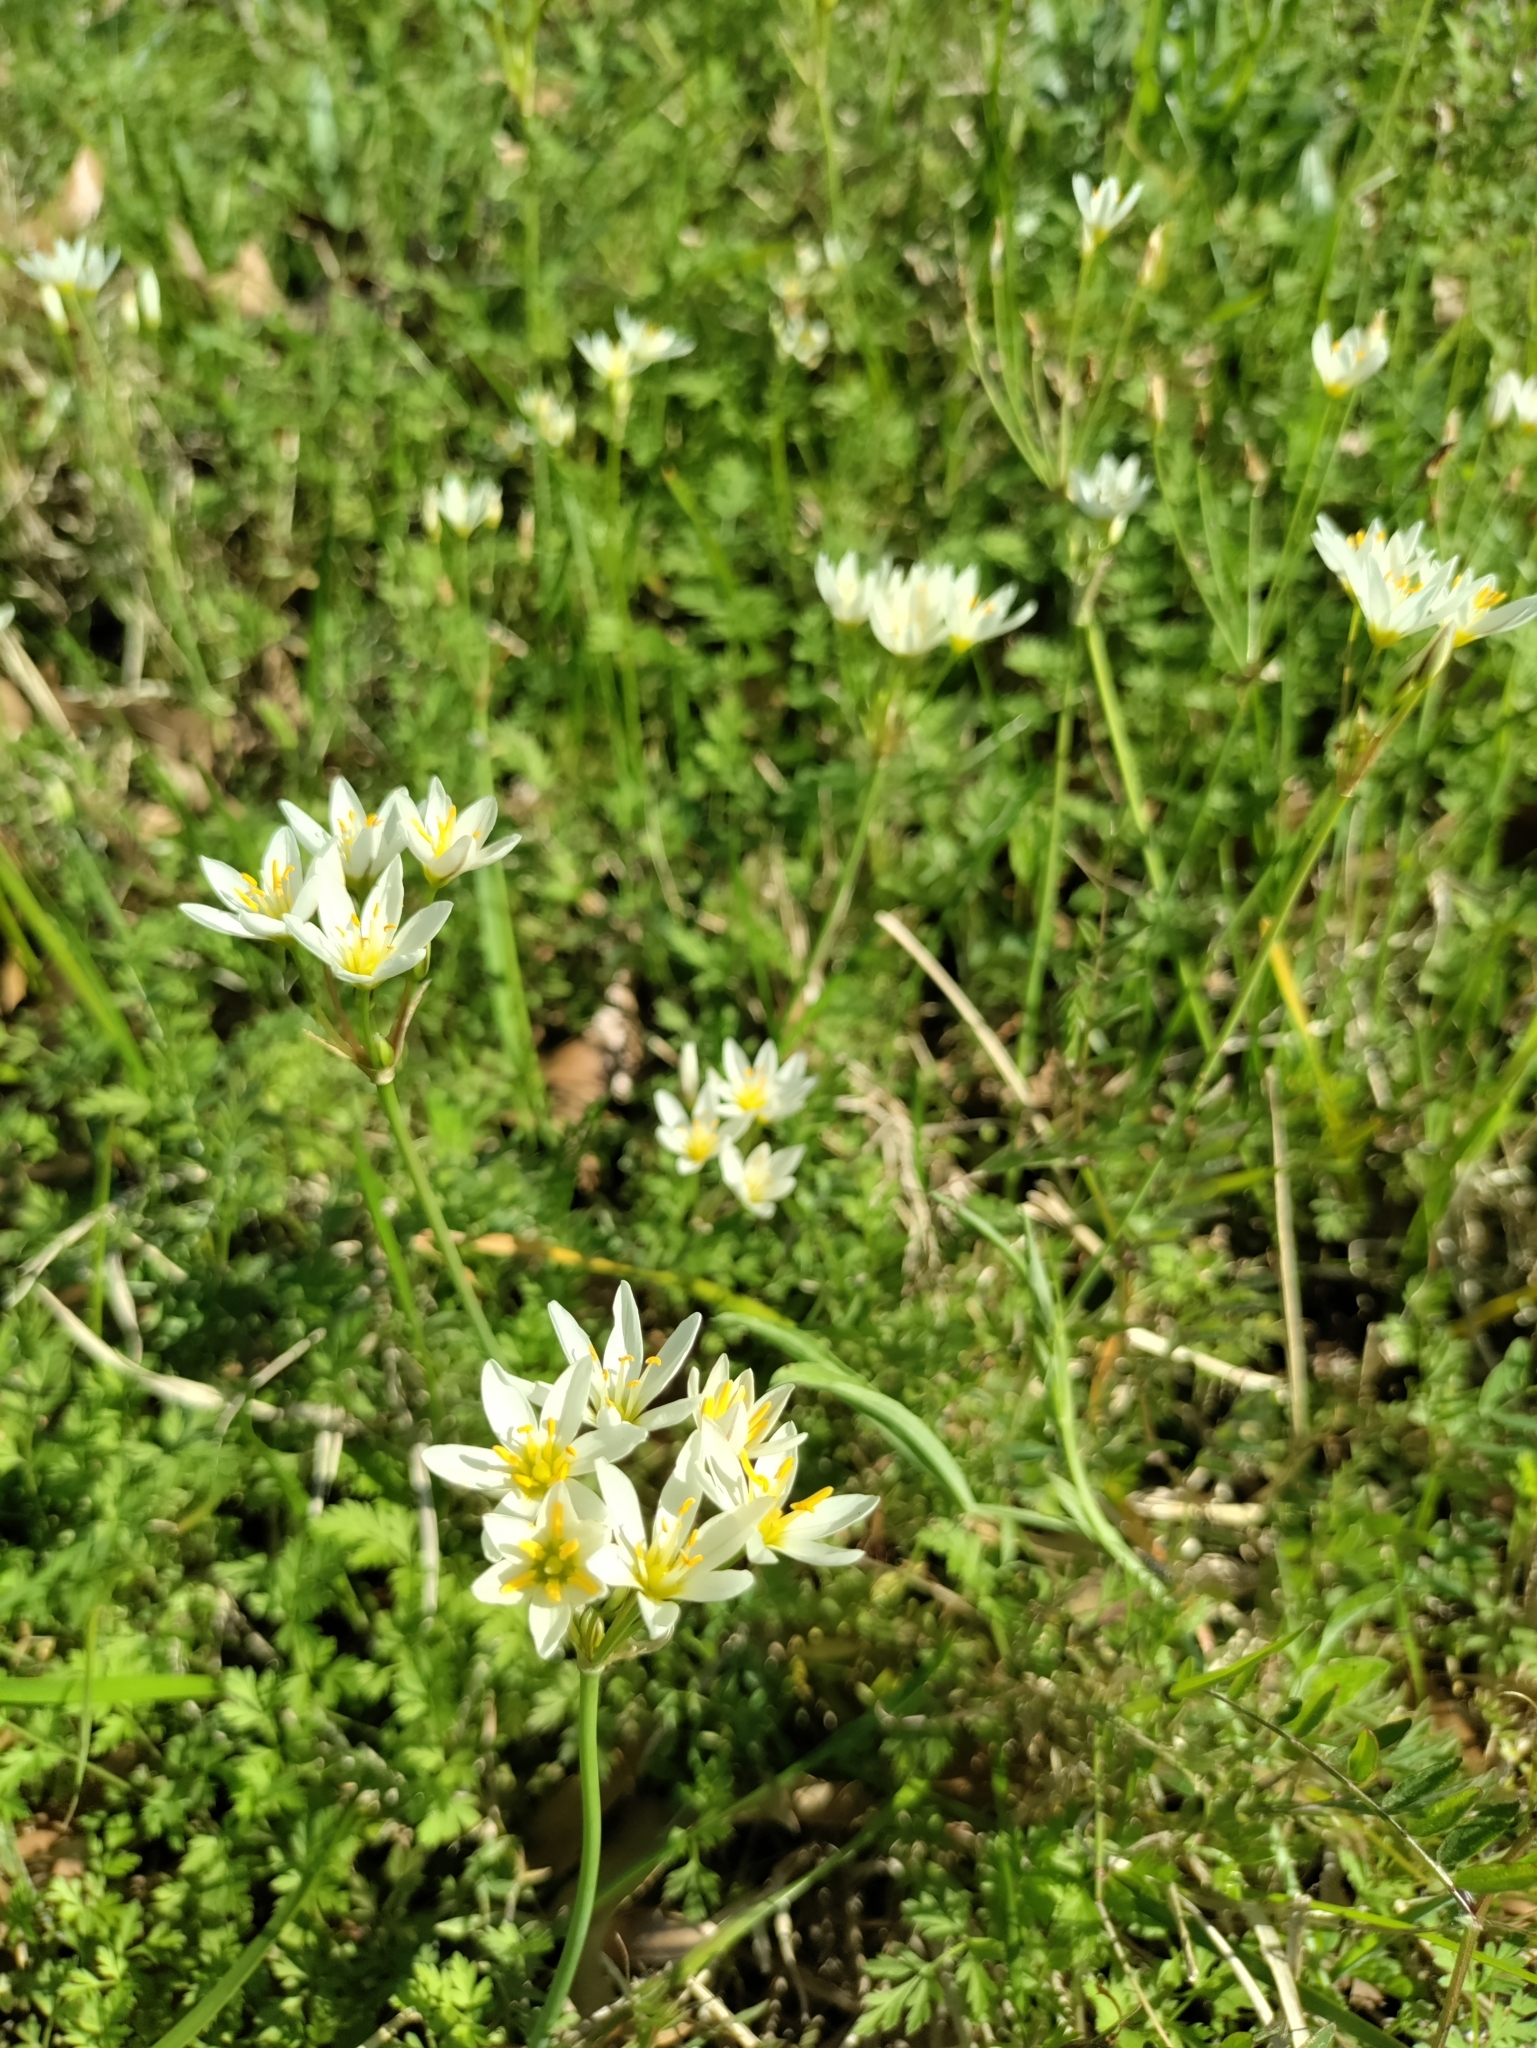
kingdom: Plantae
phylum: Tracheophyta
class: Liliopsida
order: Asparagales
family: Amaryllidaceae
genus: Nothoscordum
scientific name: Nothoscordum bivalve
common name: Crow-poison
